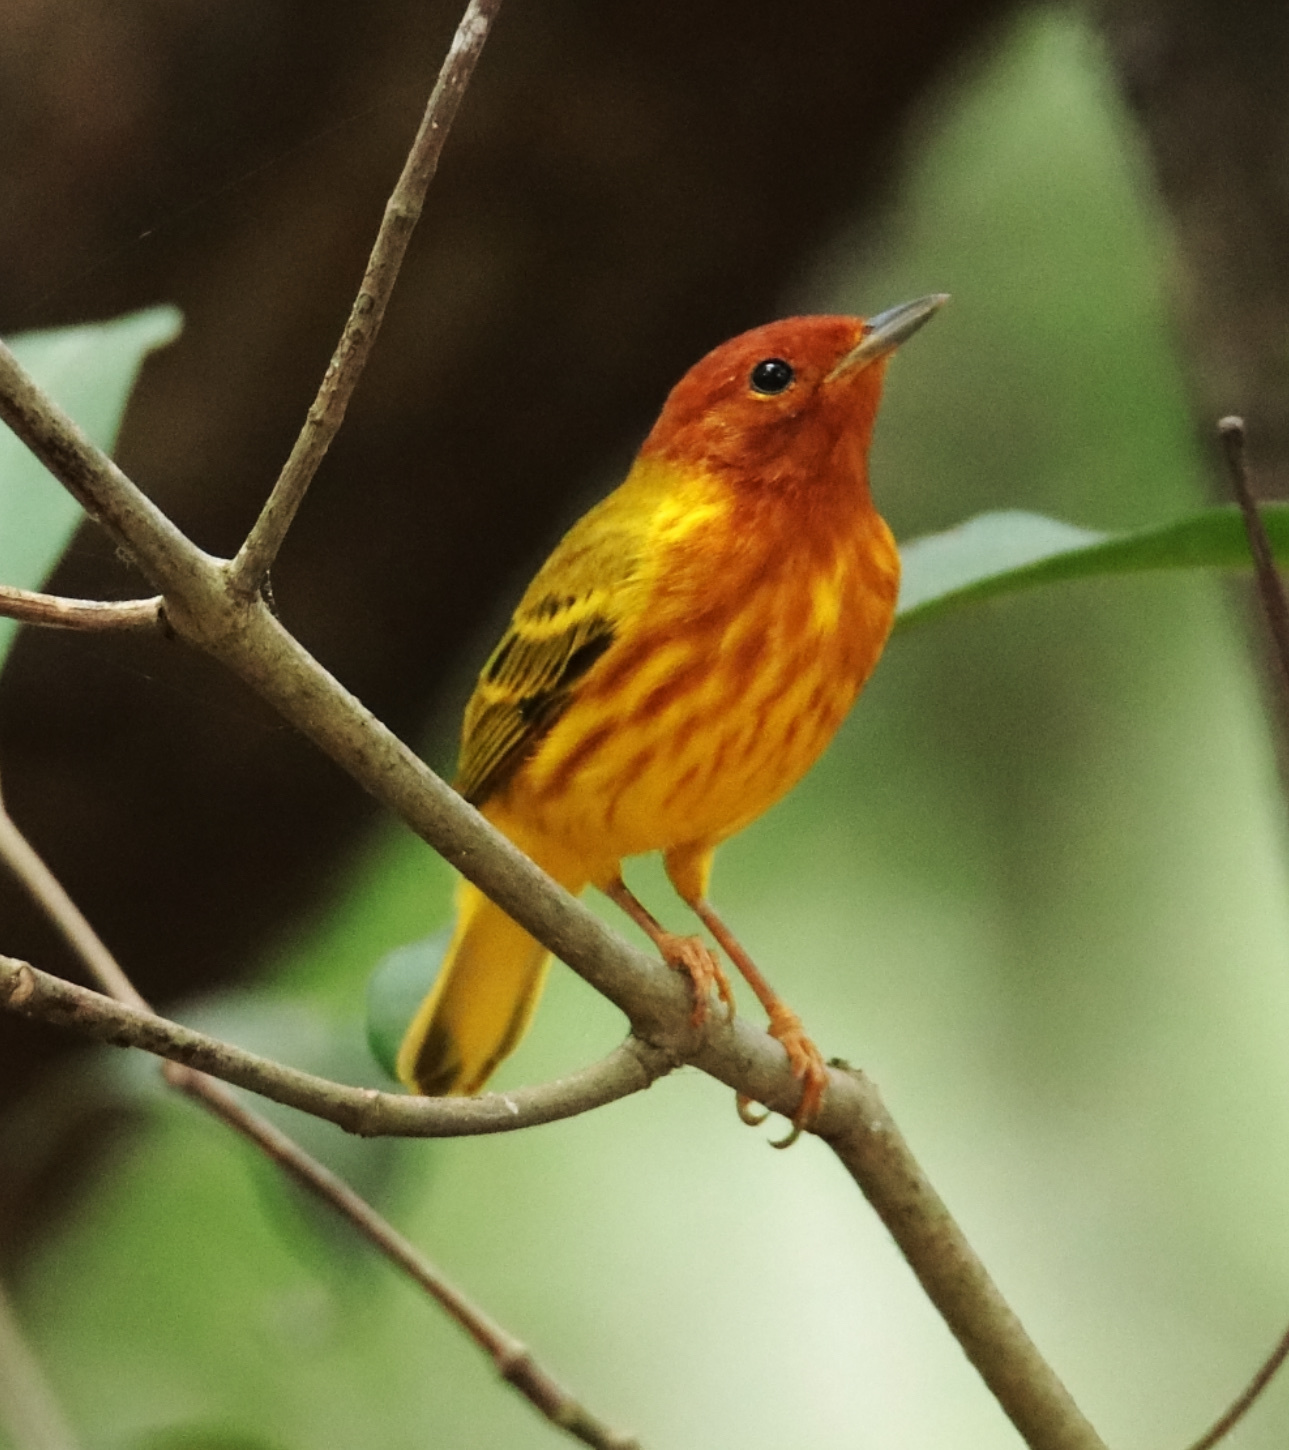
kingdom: Animalia
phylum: Chordata
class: Aves
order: Passeriformes
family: Parulidae
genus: Setophaga
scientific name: Setophaga petechia
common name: Yellow warbler
